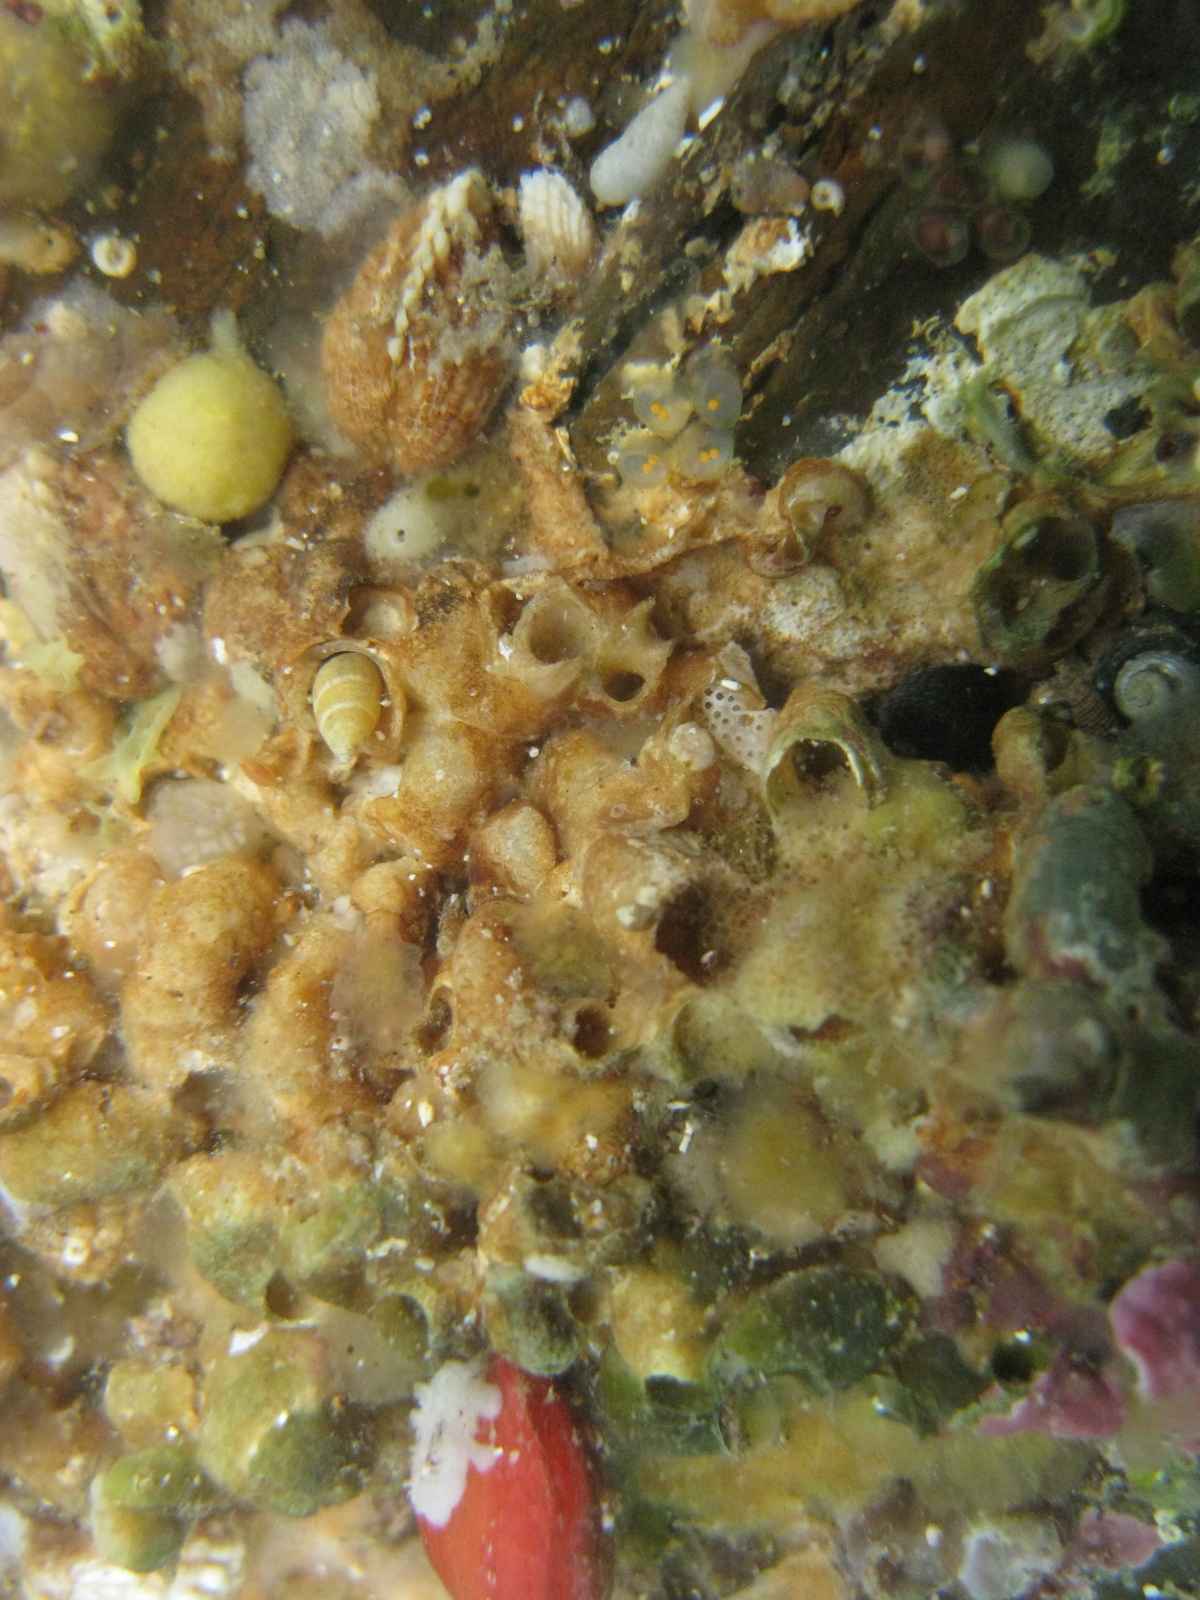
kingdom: Animalia
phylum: Mollusca
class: Gastropoda
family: Siliquariidae
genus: Stephopoma
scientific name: Stephopoma roseum
